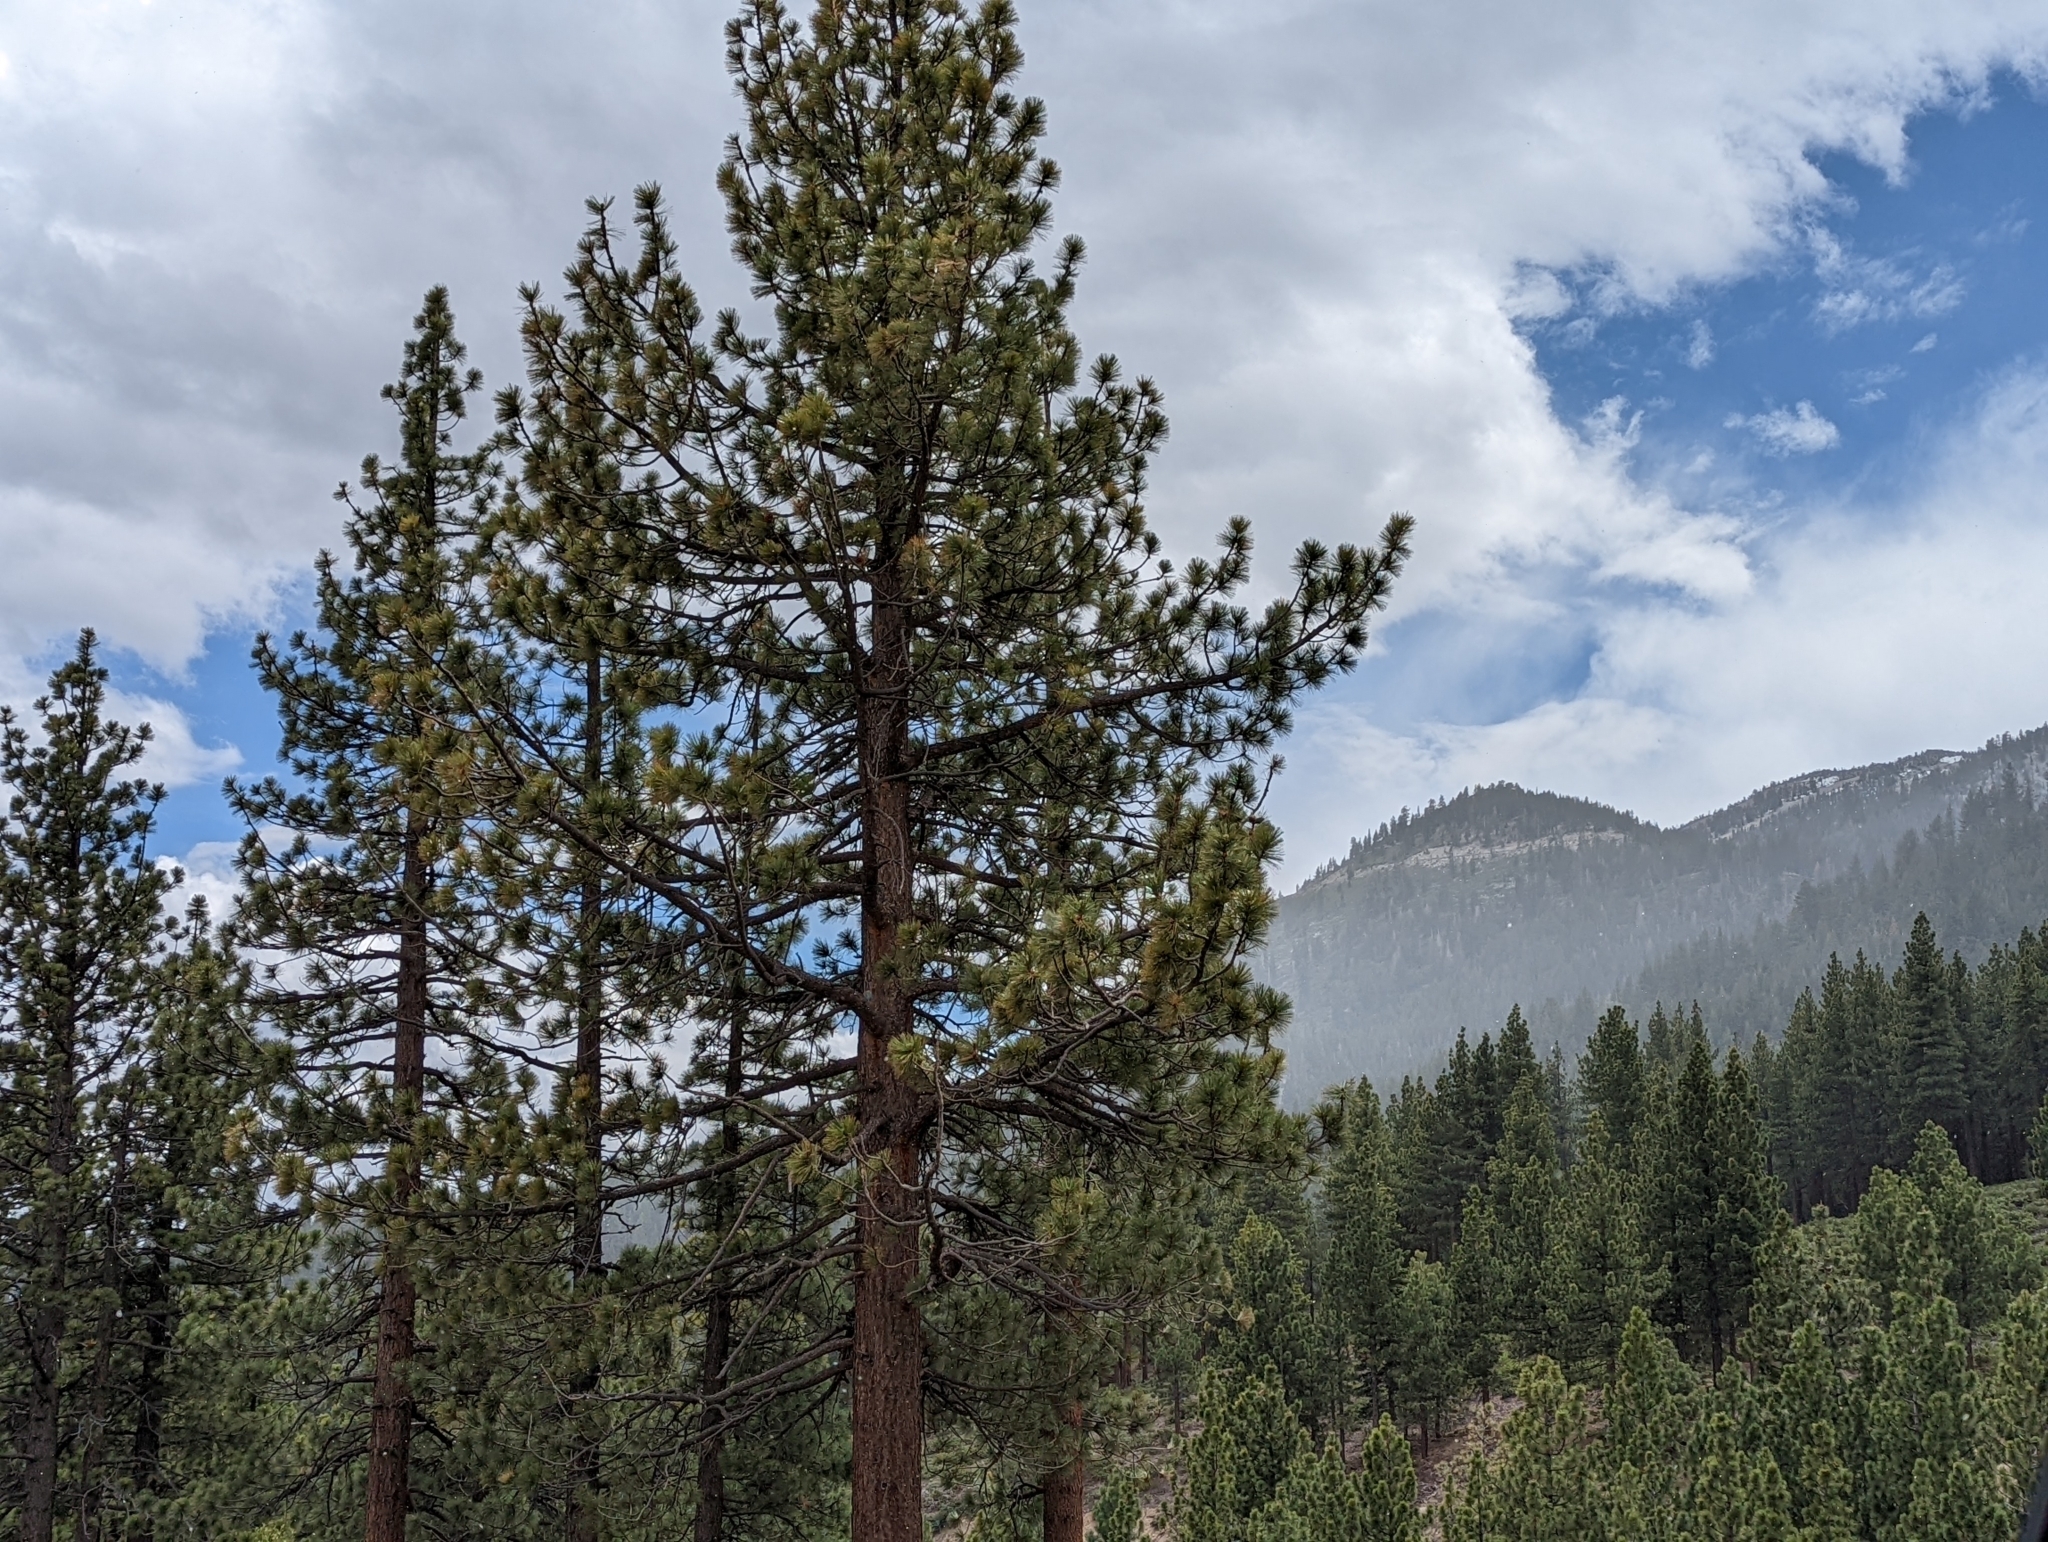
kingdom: Plantae
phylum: Tracheophyta
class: Pinopsida
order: Pinales
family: Pinaceae
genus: Pinus
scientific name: Pinus jeffreyi
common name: Jeffrey pine
